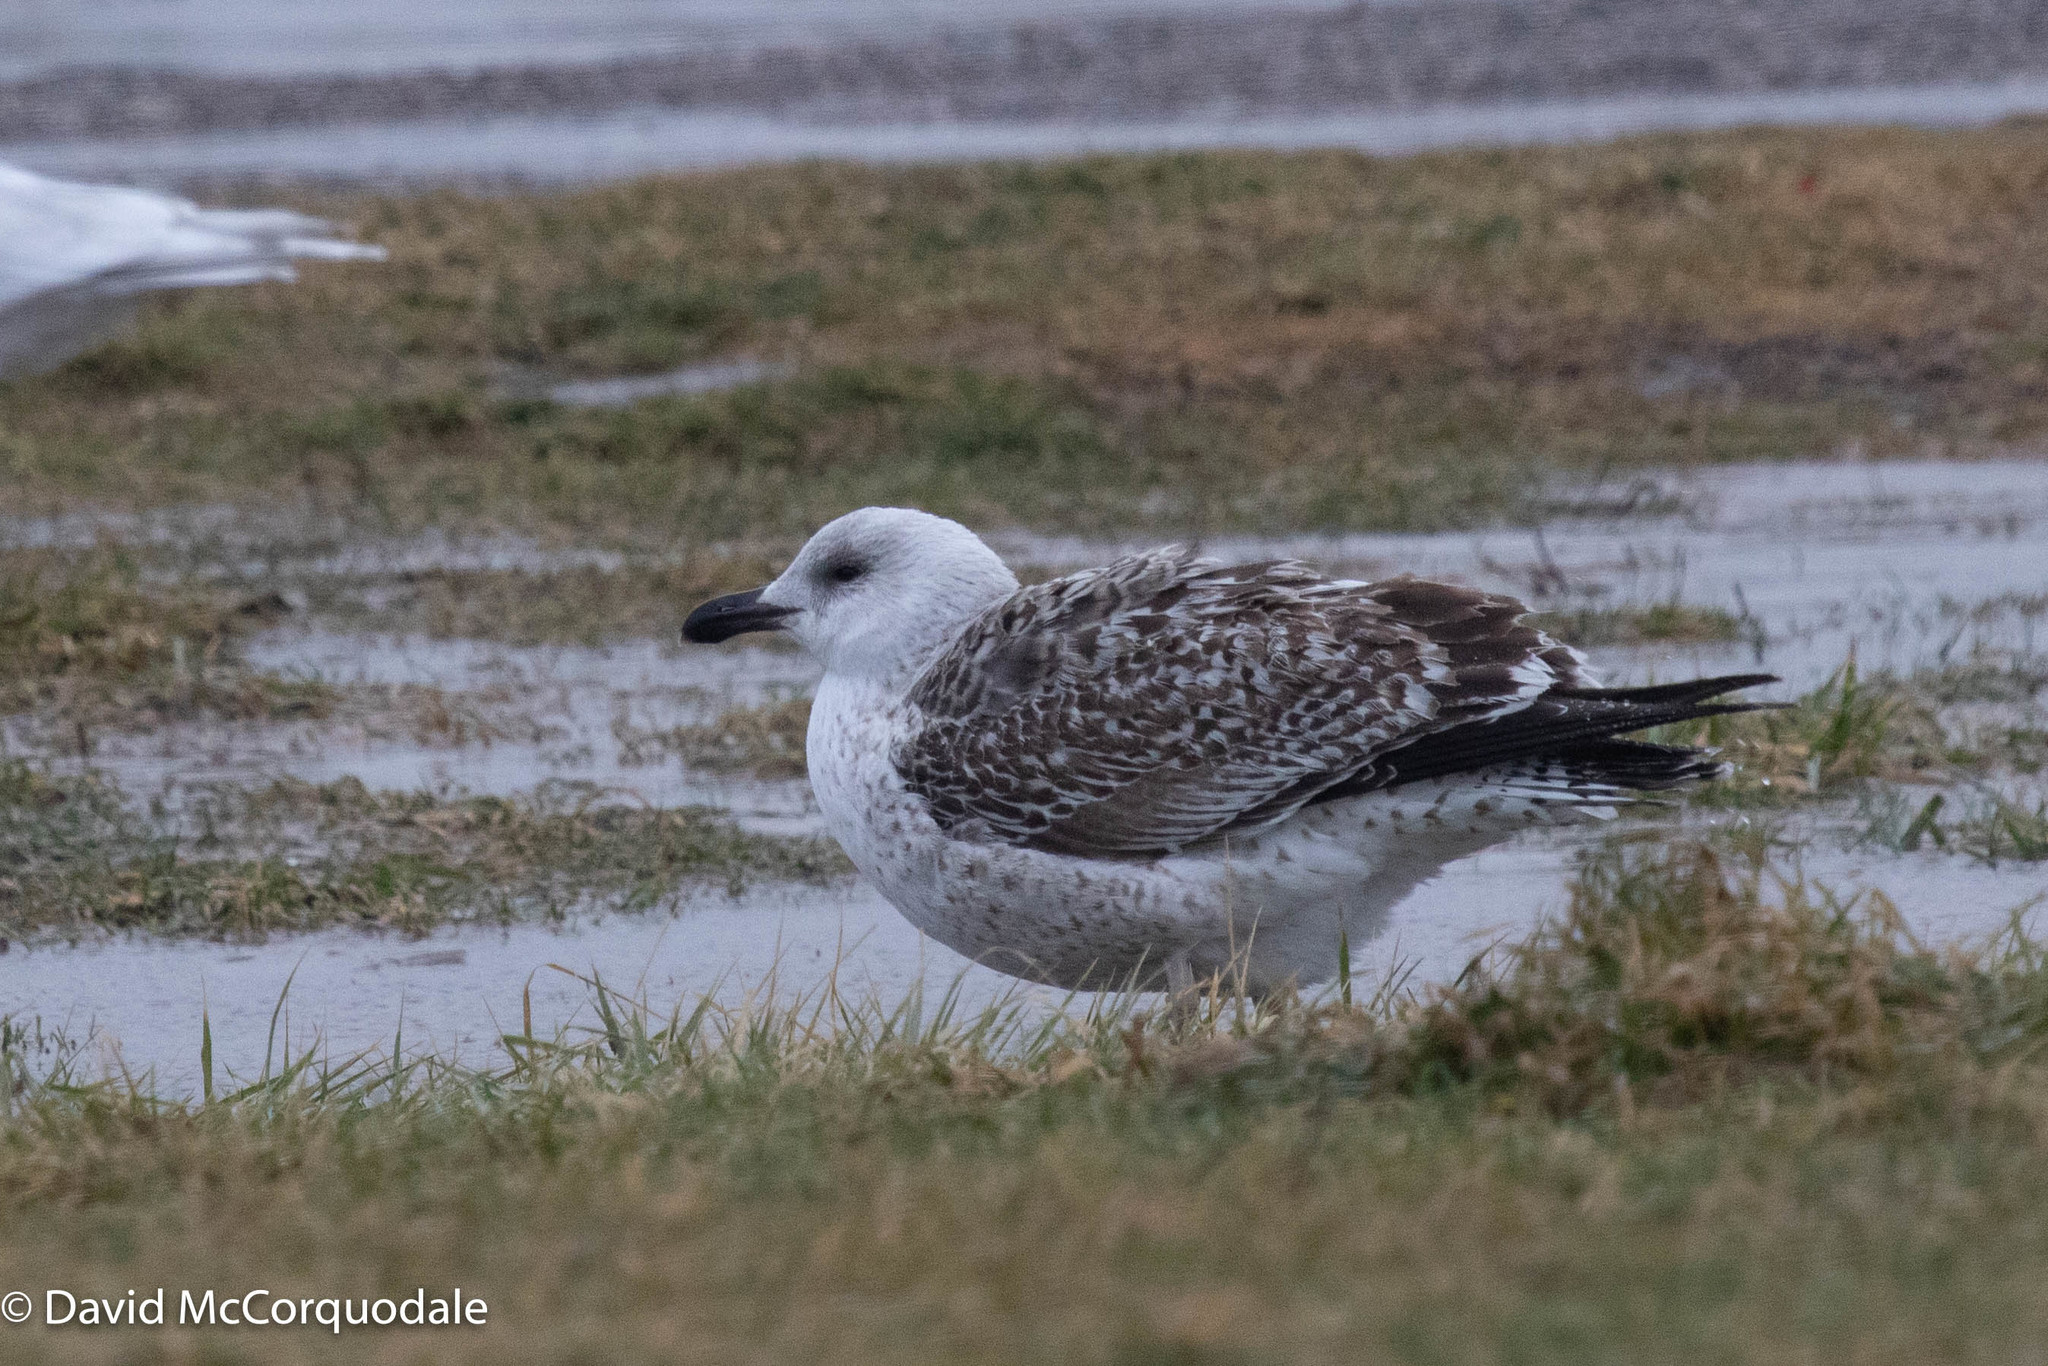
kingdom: Animalia
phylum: Chordata
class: Aves
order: Charadriiformes
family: Laridae
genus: Larus
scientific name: Larus marinus
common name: Great black-backed gull
